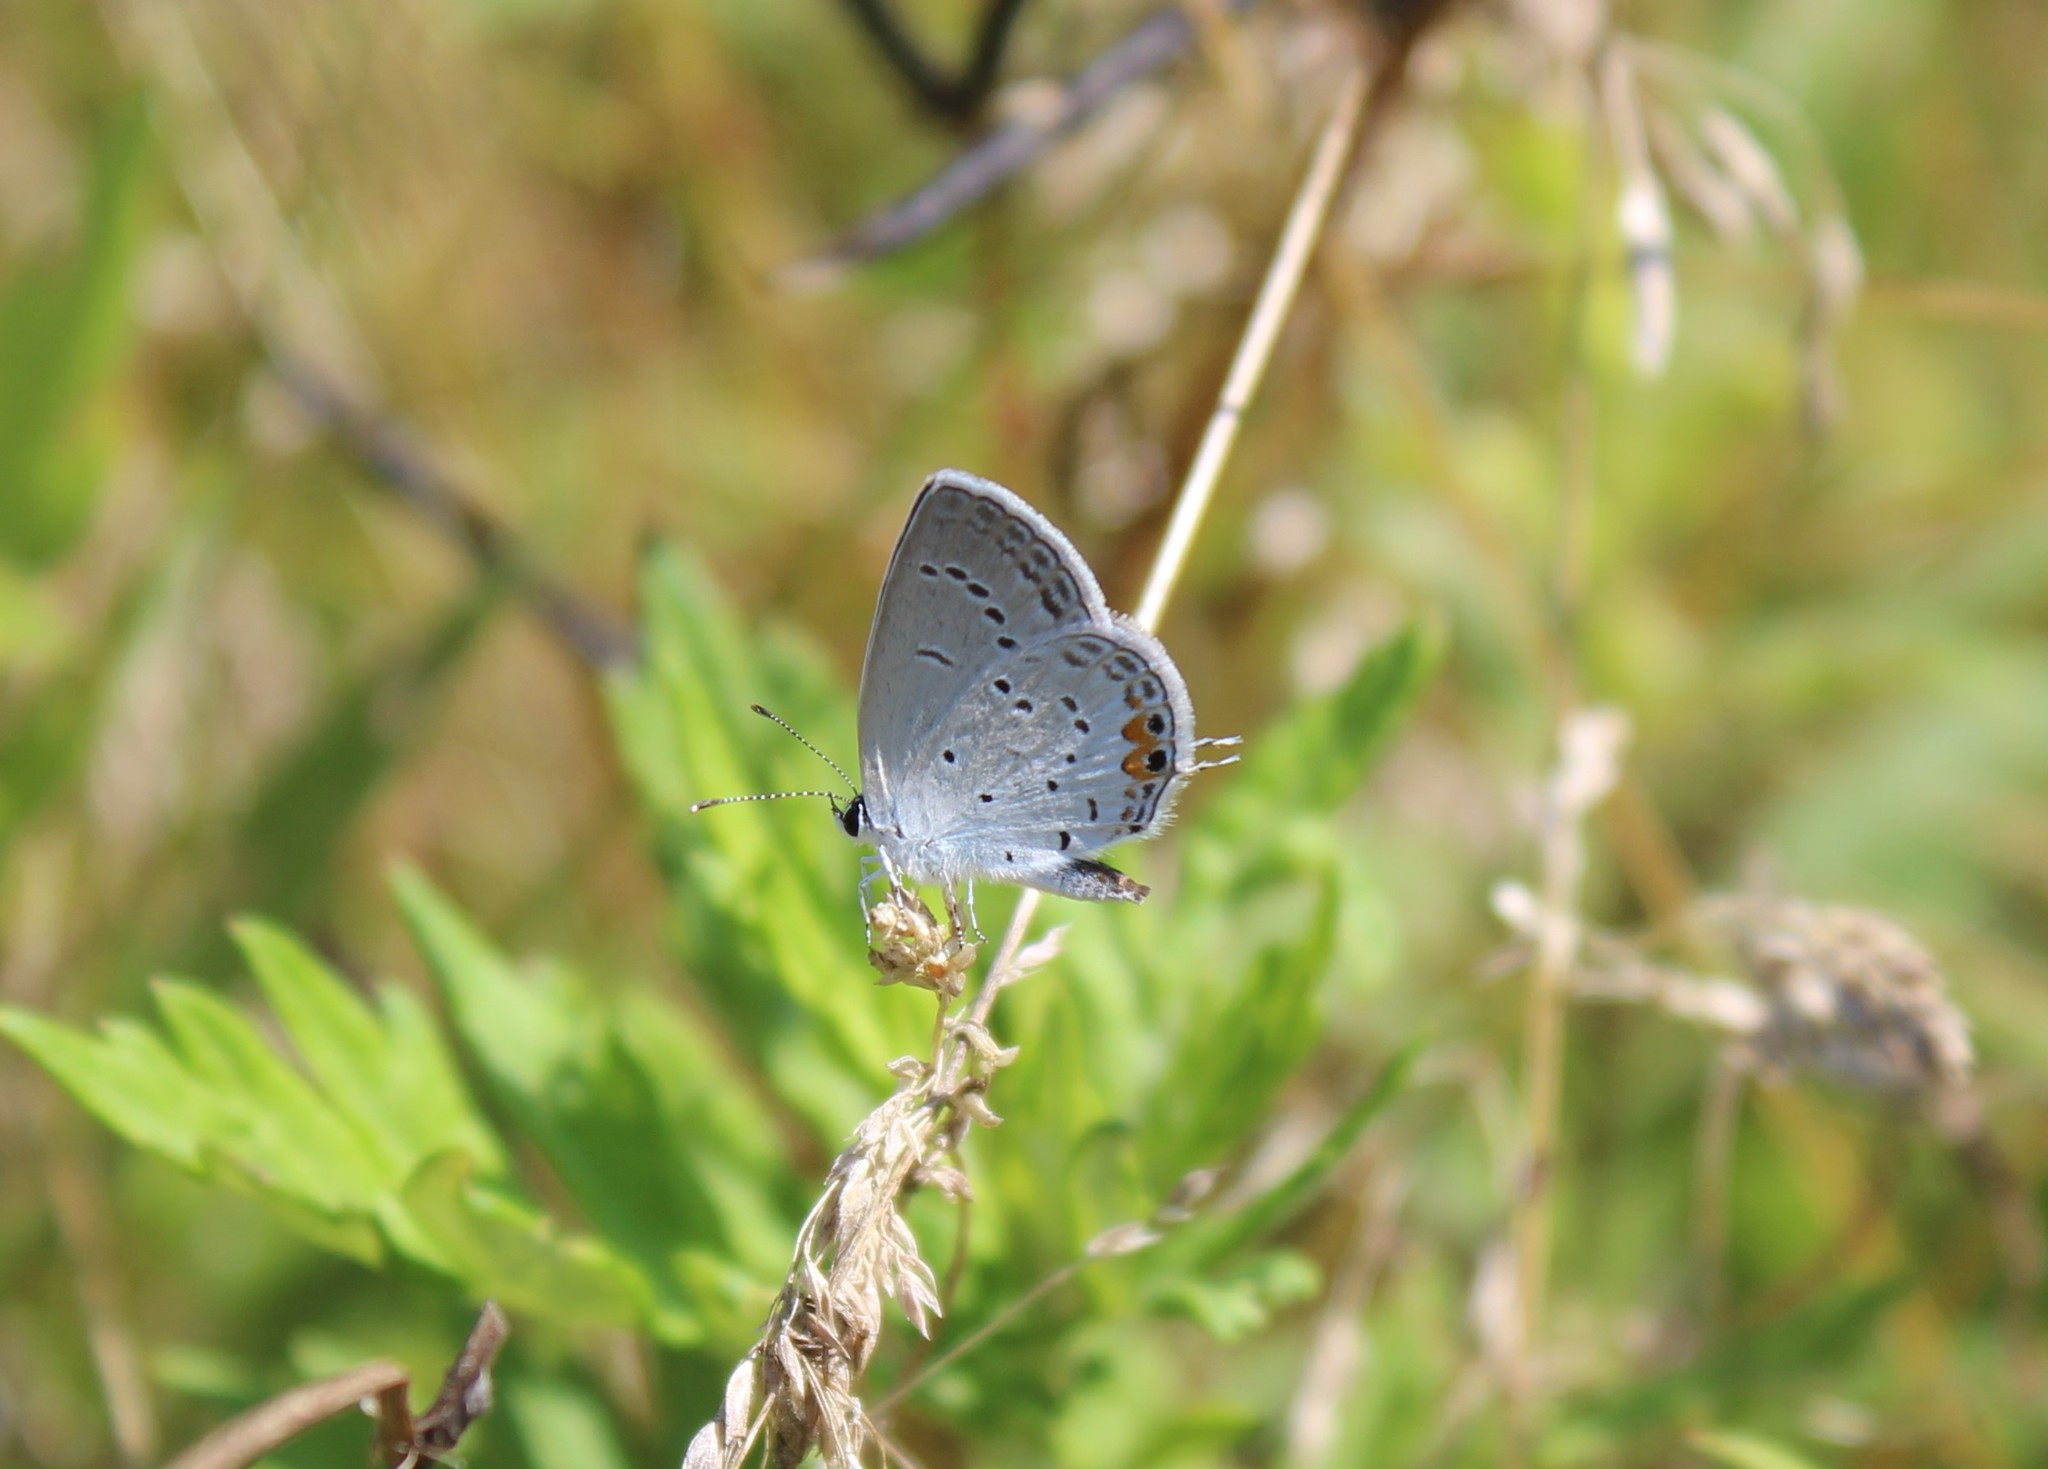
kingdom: Animalia
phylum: Arthropoda
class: Insecta
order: Lepidoptera
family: Lycaenidae
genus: Elkalyce
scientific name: Elkalyce comyntas
